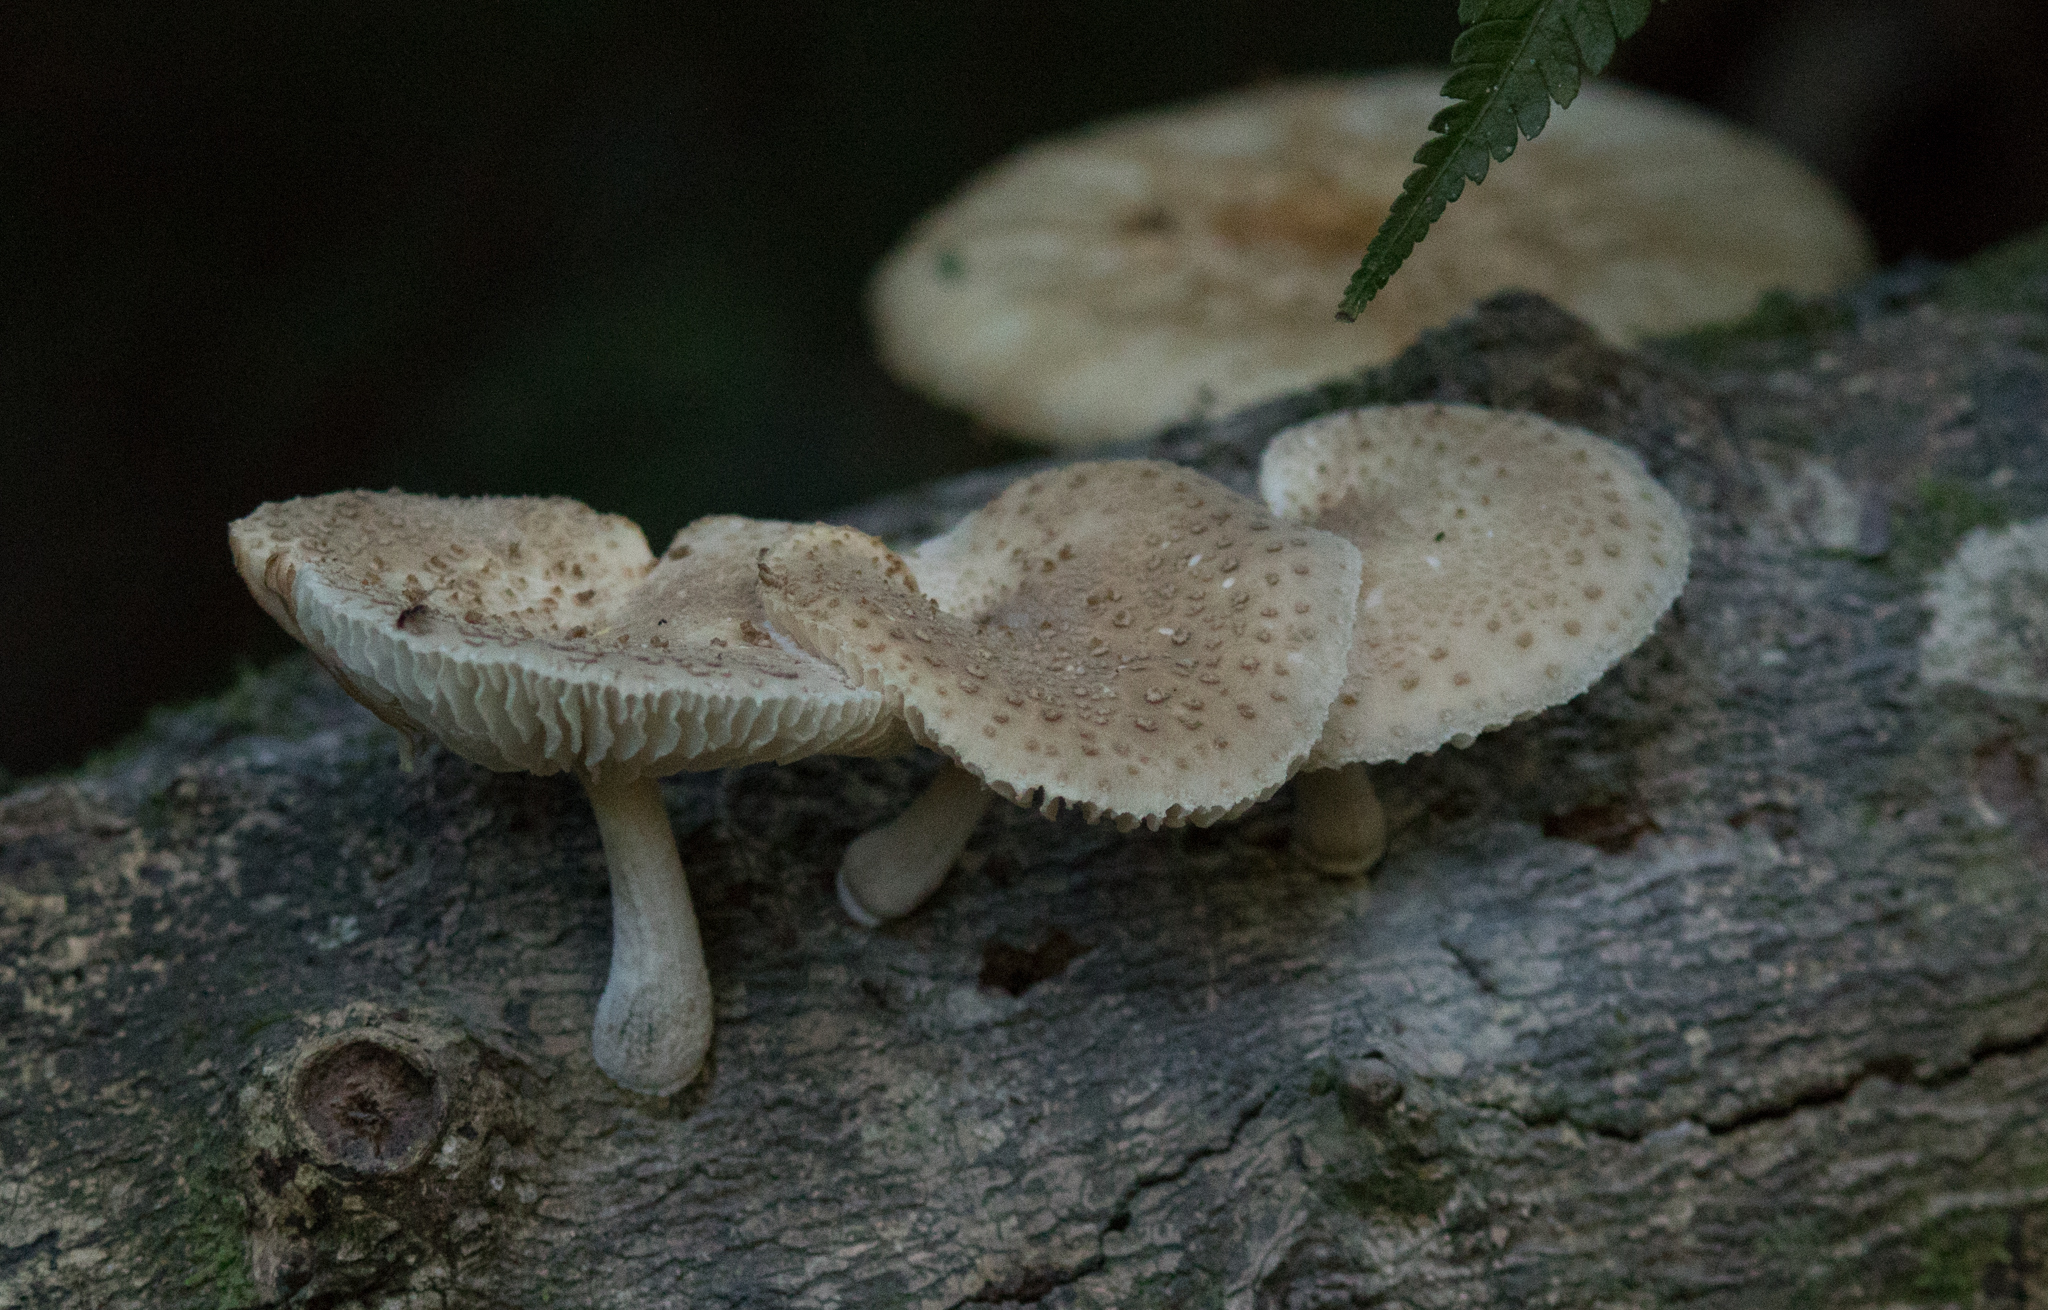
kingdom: Fungi
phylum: Basidiomycota
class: Agaricomycetes
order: Agaricales
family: Physalacriaceae
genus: Oudemansiella
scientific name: Oudemansiella cubensis
